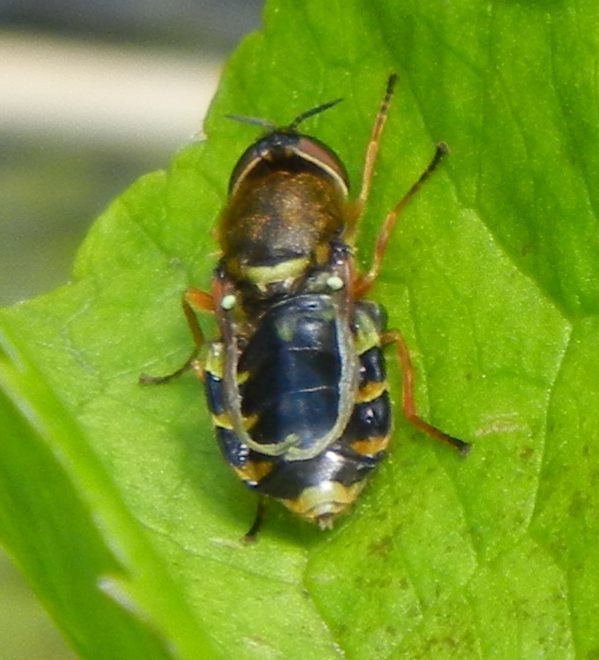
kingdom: Animalia
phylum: Arthropoda
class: Insecta
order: Diptera
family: Stratiomyidae
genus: Odontomyia
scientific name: Odontomyia ornata
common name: Ornate brigadier
